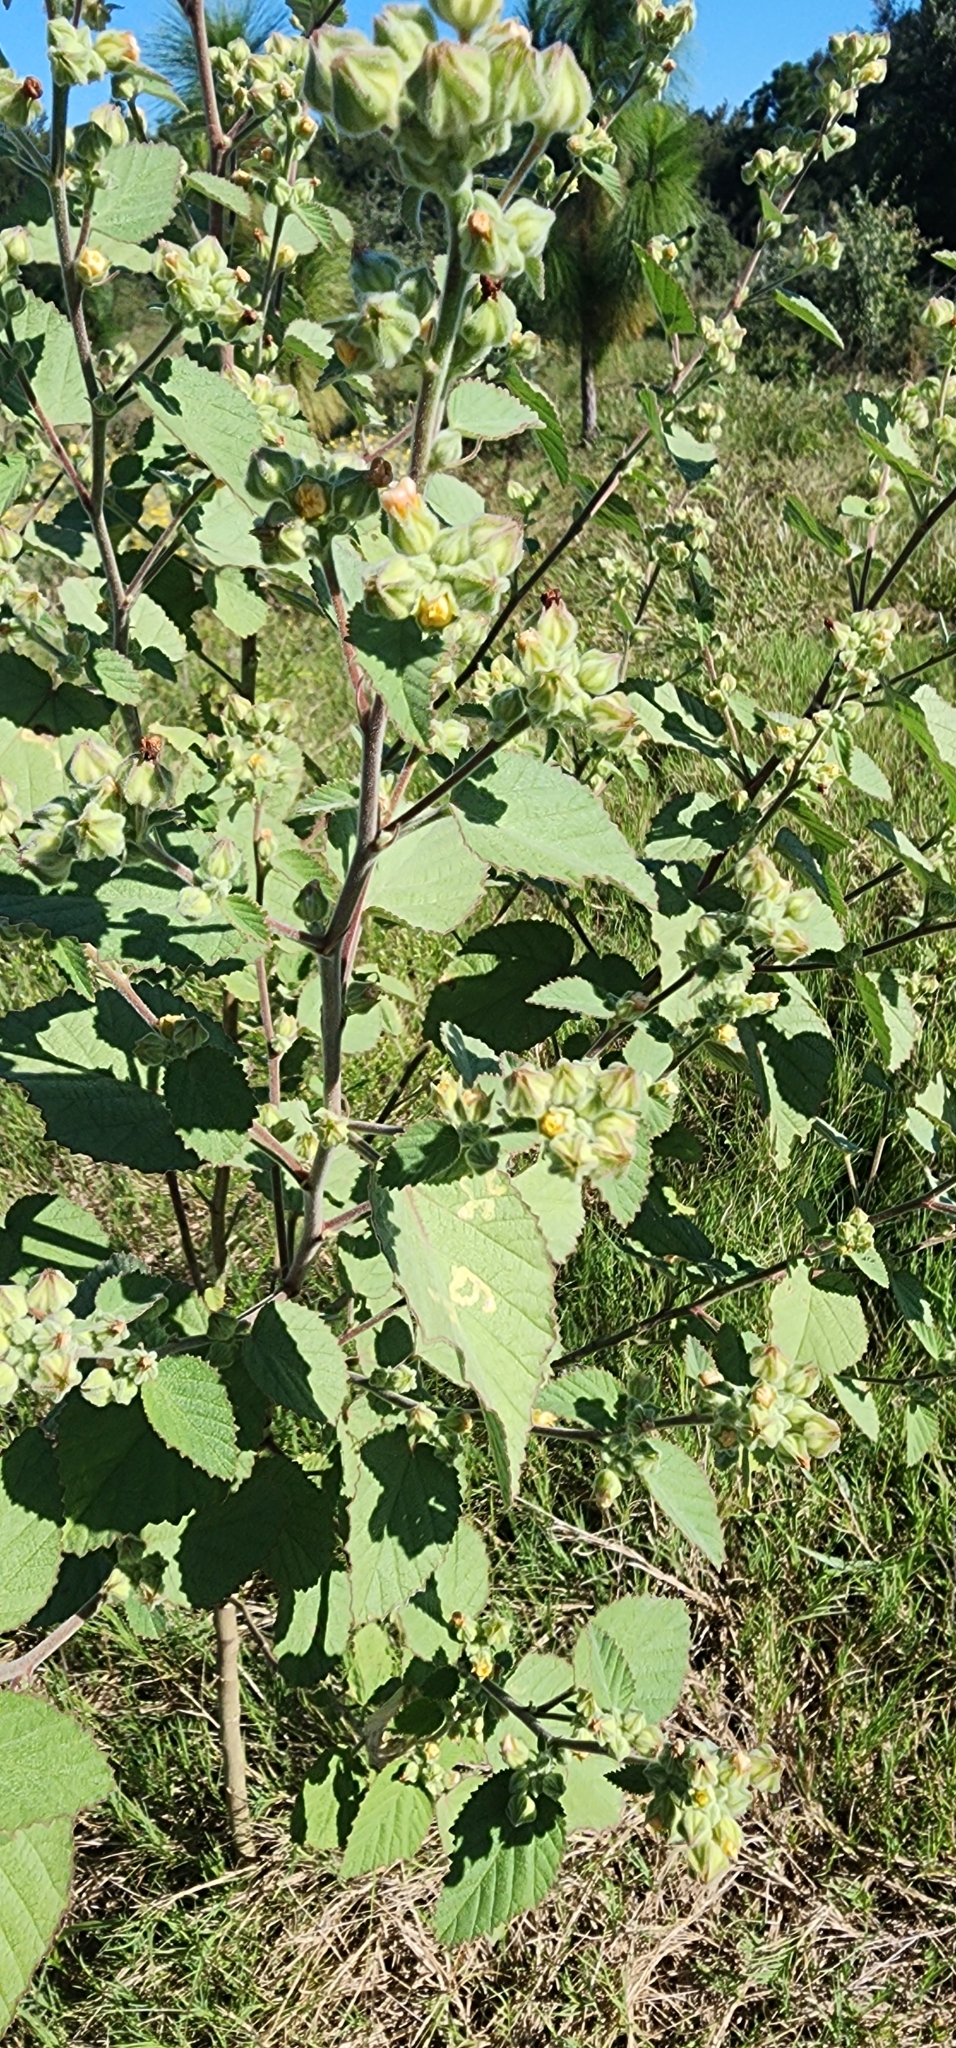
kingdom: Plantae
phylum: Tracheophyta
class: Magnoliopsida
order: Malvales
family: Malvaceae
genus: Sida
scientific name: Sida cordifolia
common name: Ilima
